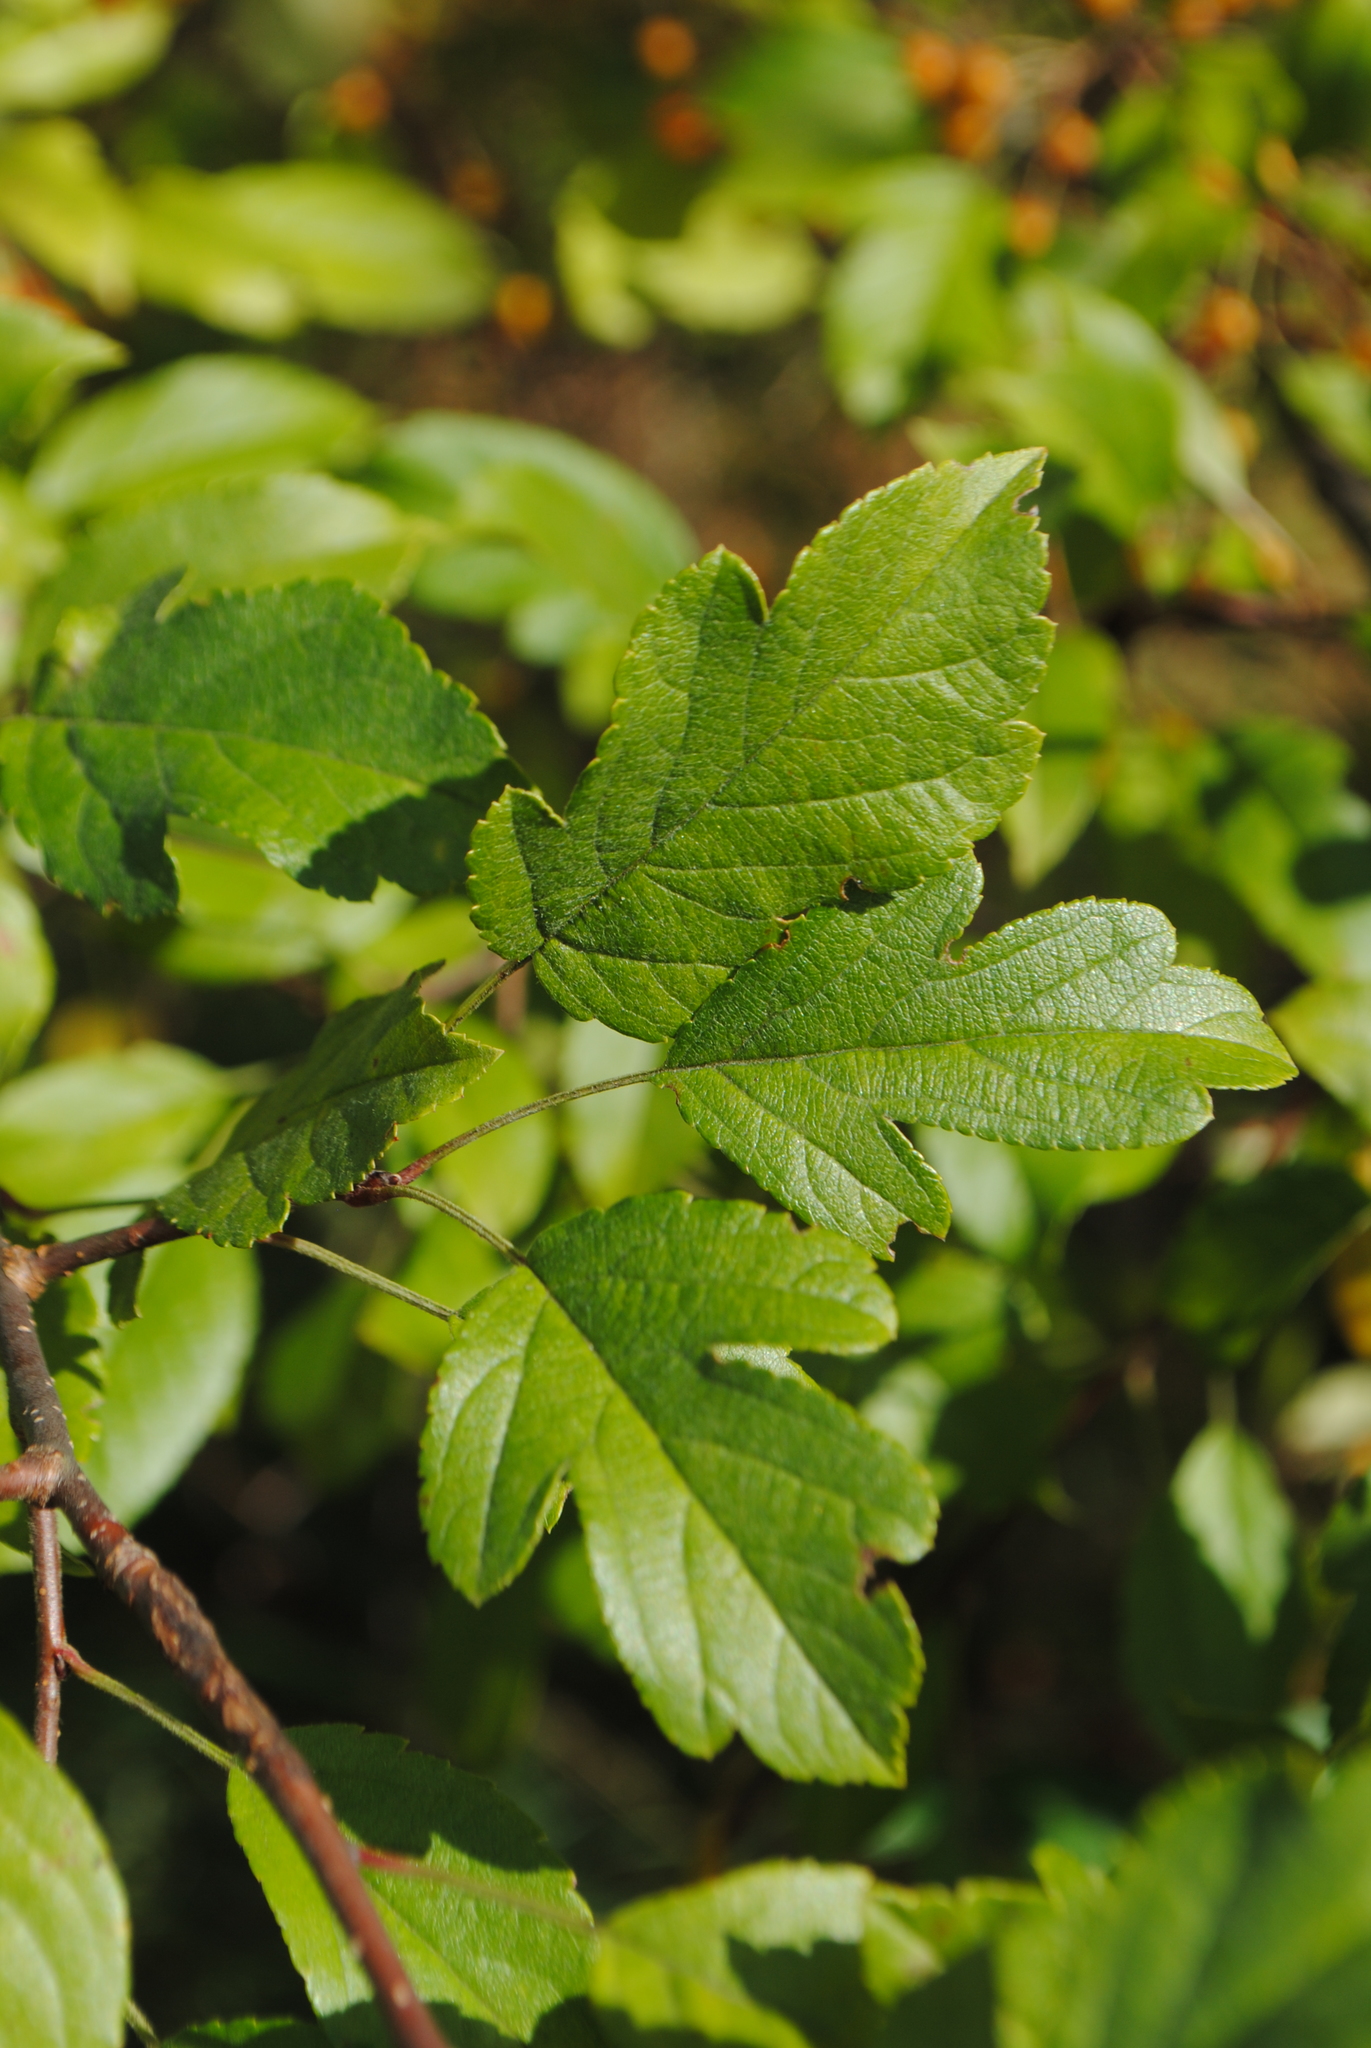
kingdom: Plantae
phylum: Tracheophyta
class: Magnoliopsida
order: Rosales
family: Rosaceae
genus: Malus
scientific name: Malus toringo
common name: Japanese crabapple
